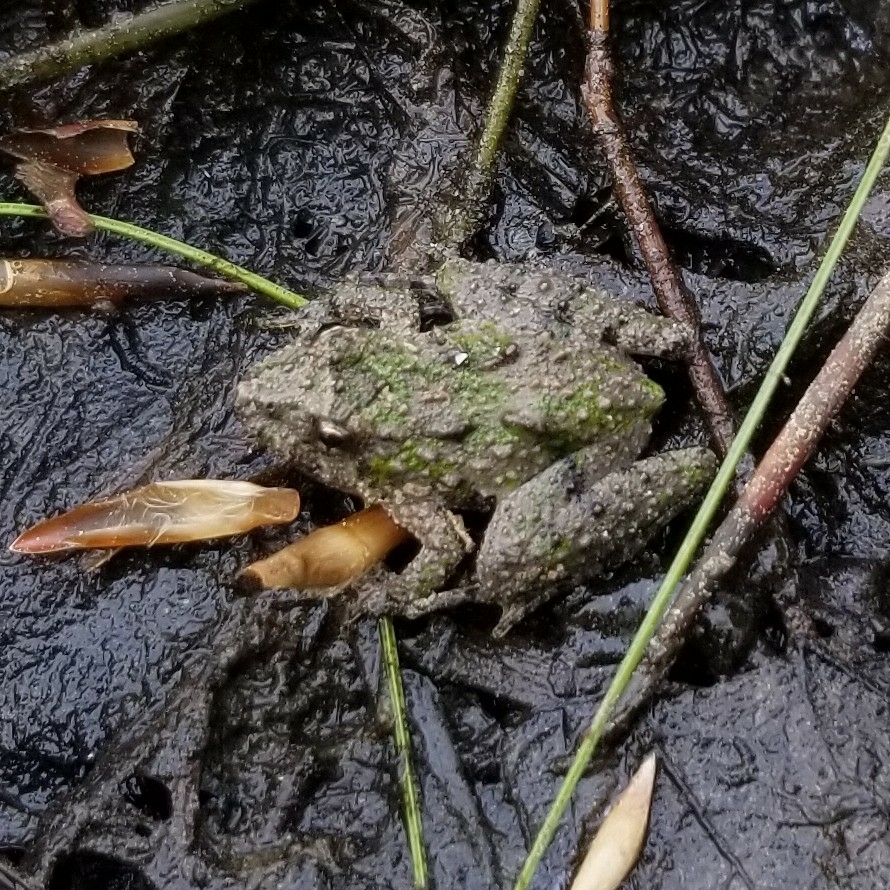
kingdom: Animalia
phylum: Chordata
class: Amphibia
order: Anura
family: Hylidae
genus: Acris
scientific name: Acris crepitans
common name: Northern cricket frog
